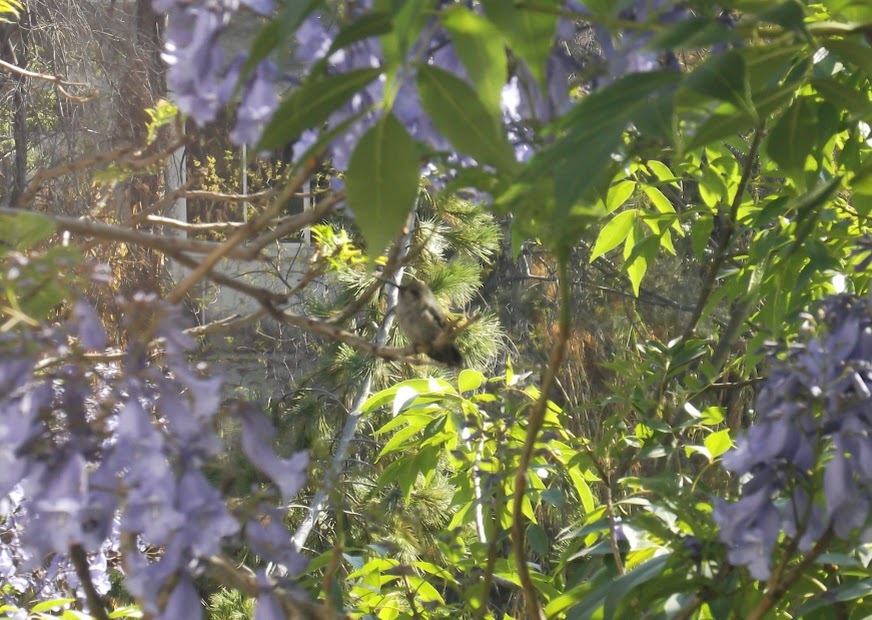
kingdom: Animalia
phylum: Chordata
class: Aves
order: Apodiformes
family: Trochilidae
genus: Basilinna
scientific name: Basilinna leucotis
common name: White-eared hummingbird
